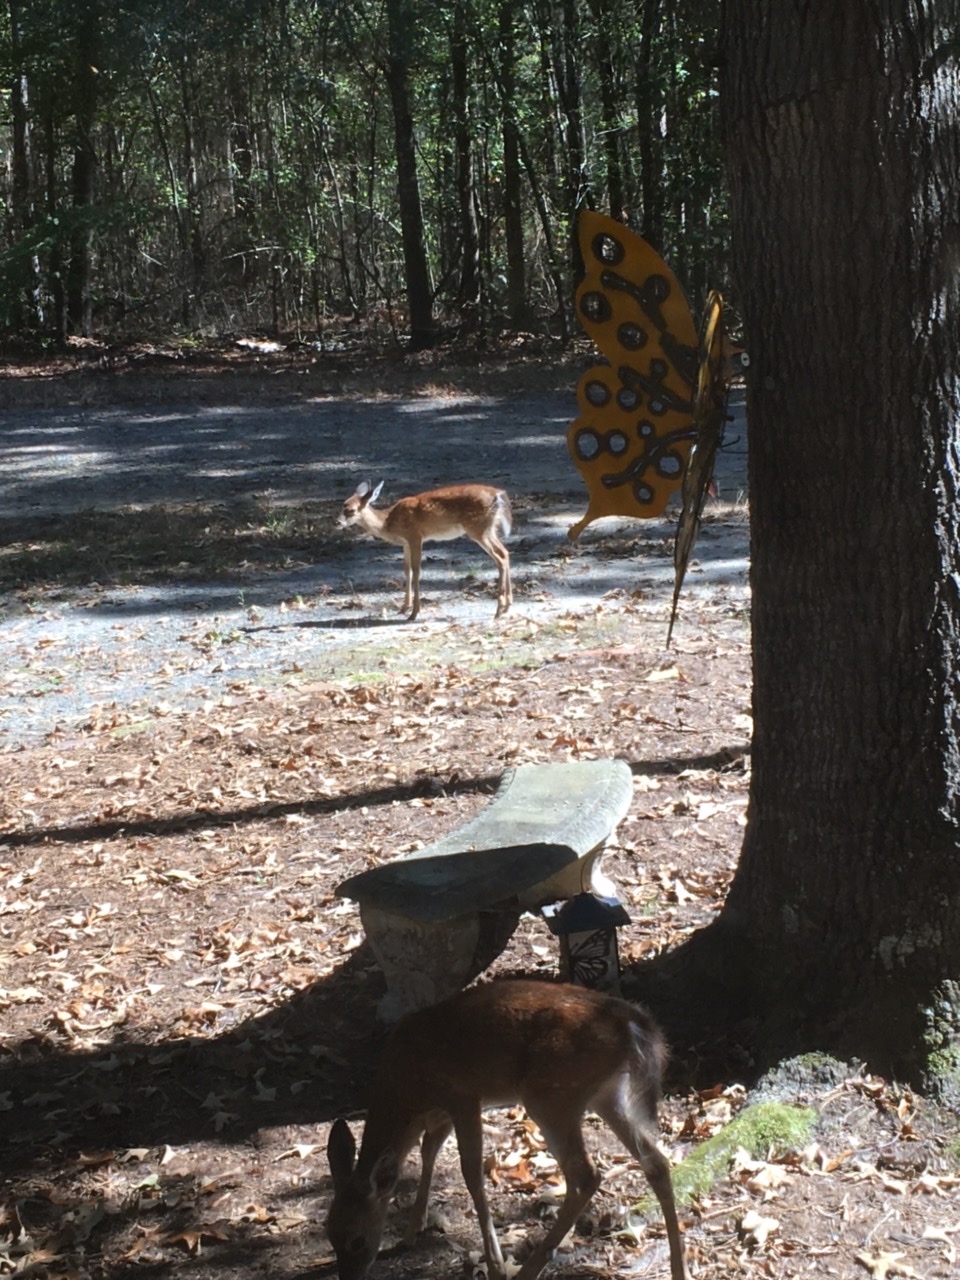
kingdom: Animalia
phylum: Chordata
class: Mammalia
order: Artiodactyla
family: Cervidae
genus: Odocoileus
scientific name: Odocoileus virginianus
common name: White-tailed deer
